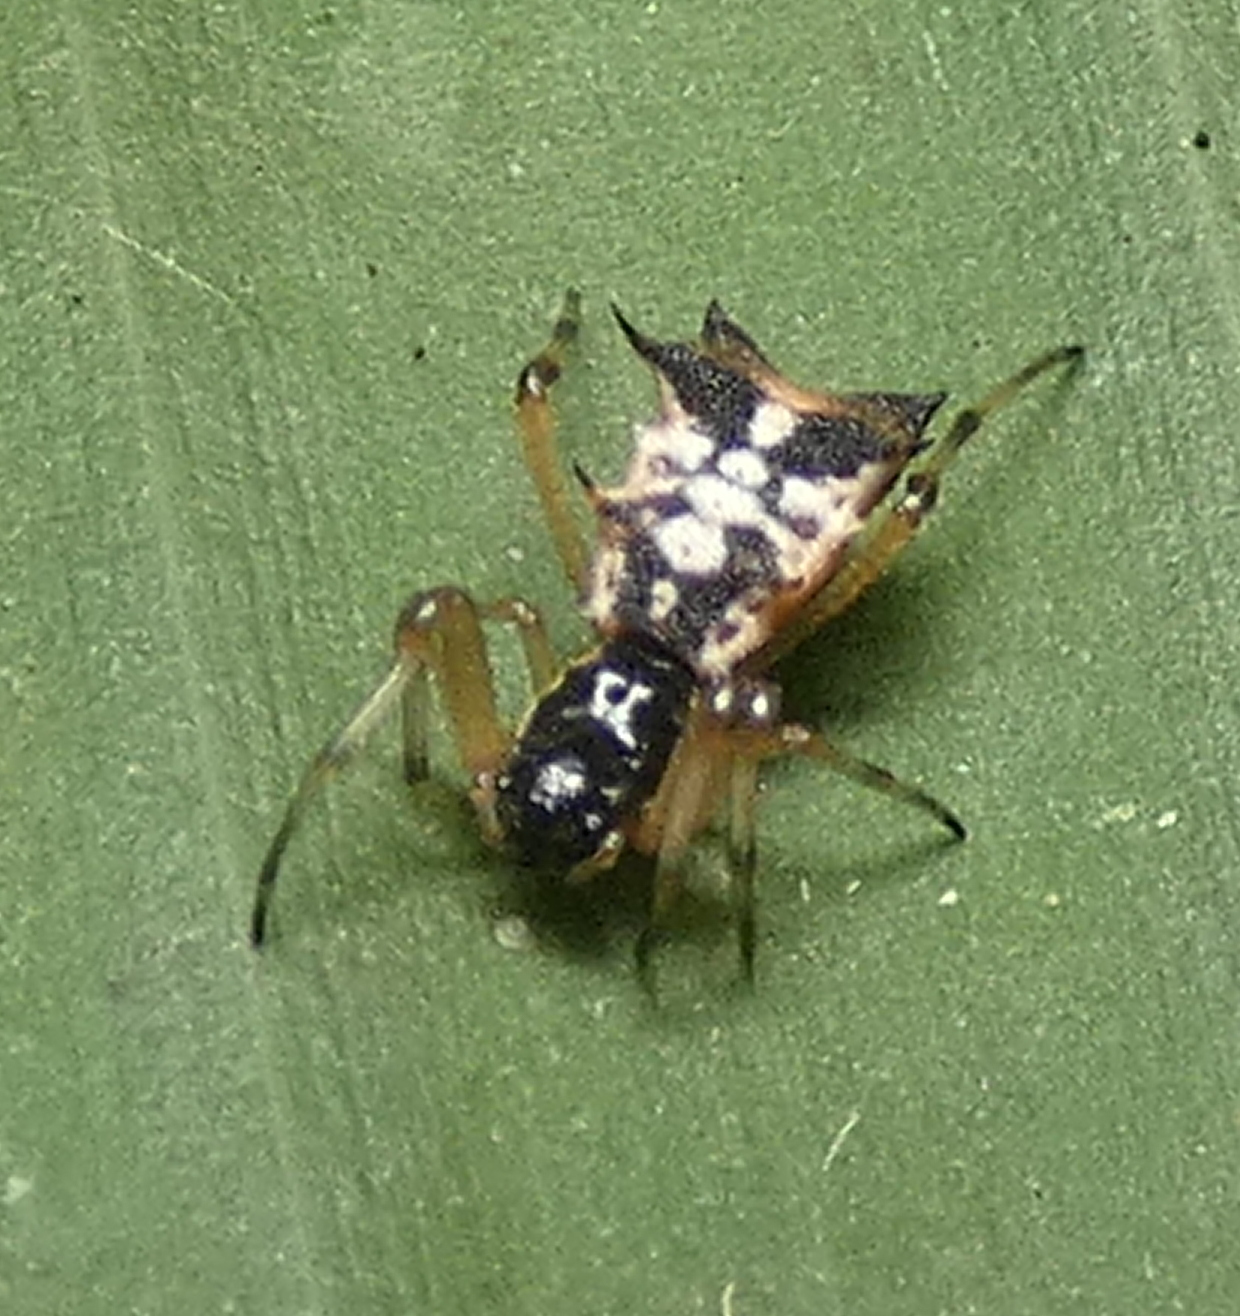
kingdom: Animalia
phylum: Arthropoda
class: Arachnida
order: Araneae
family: Araneidae
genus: Micrathena
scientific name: Micrathena picta
